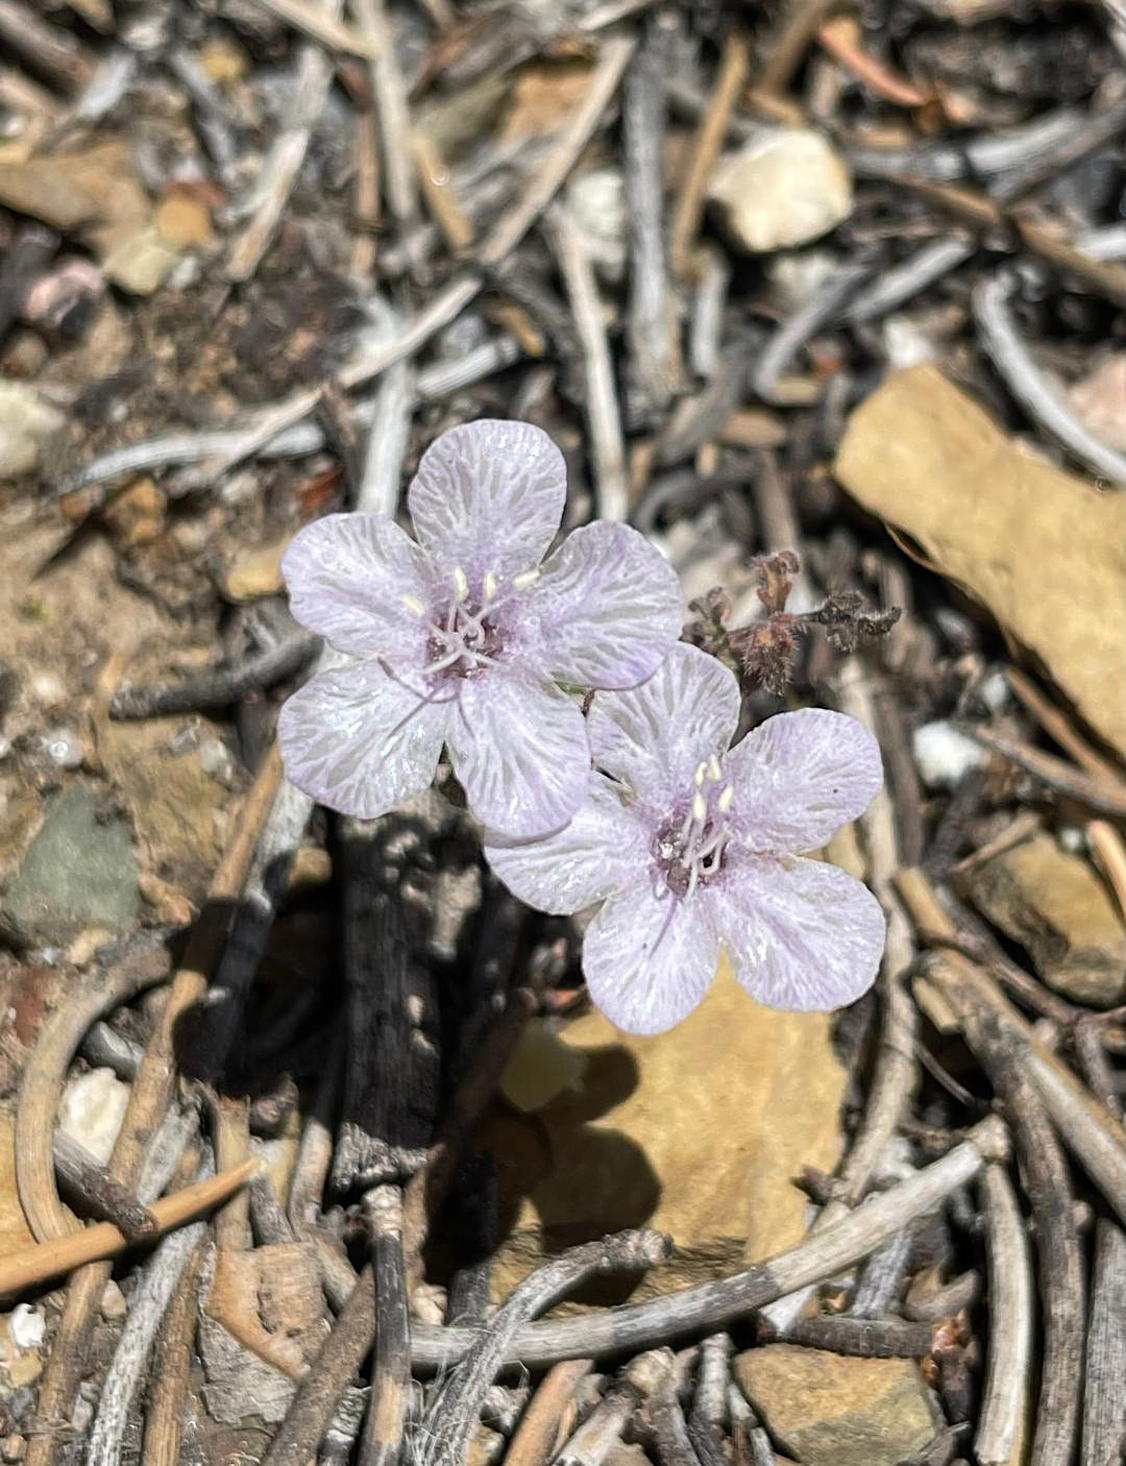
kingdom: Plantae
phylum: Tracheophyta
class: Magnoliopsida
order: Boraginales
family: Hydrophyllaceae
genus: Phacelia
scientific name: Phacelia vallis-mortae
